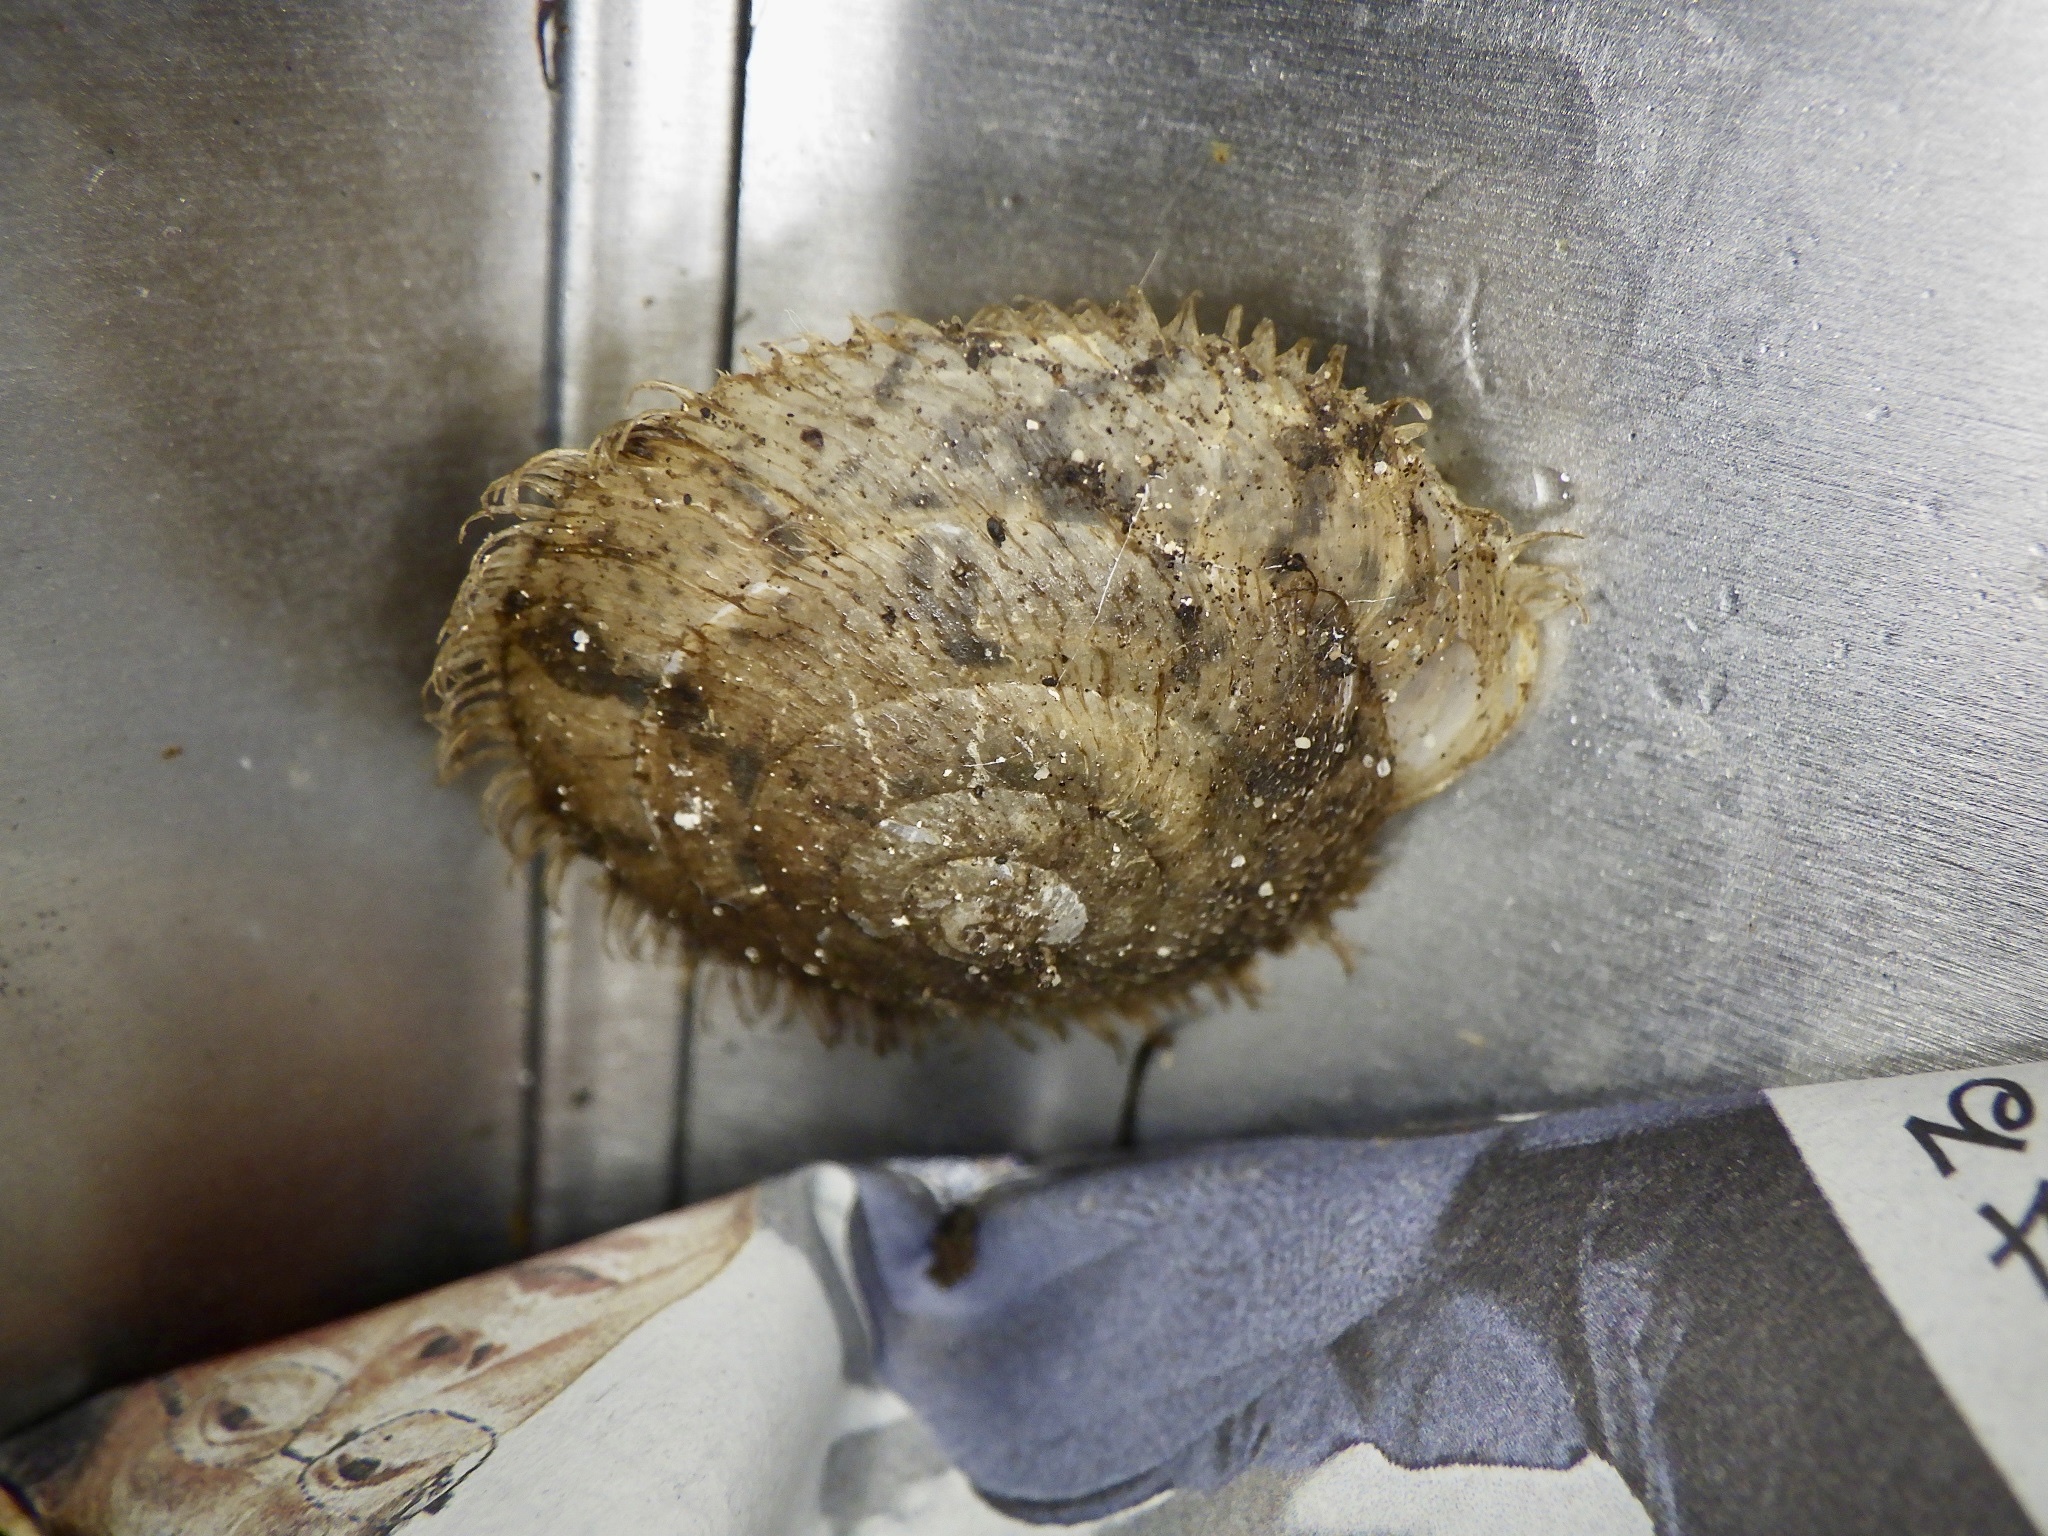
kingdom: Animalia
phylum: Mollusca
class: Gastropoda
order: Stylommatophora
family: Camaenidae
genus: Plectotropis
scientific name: Plectotropis vulgivaga
